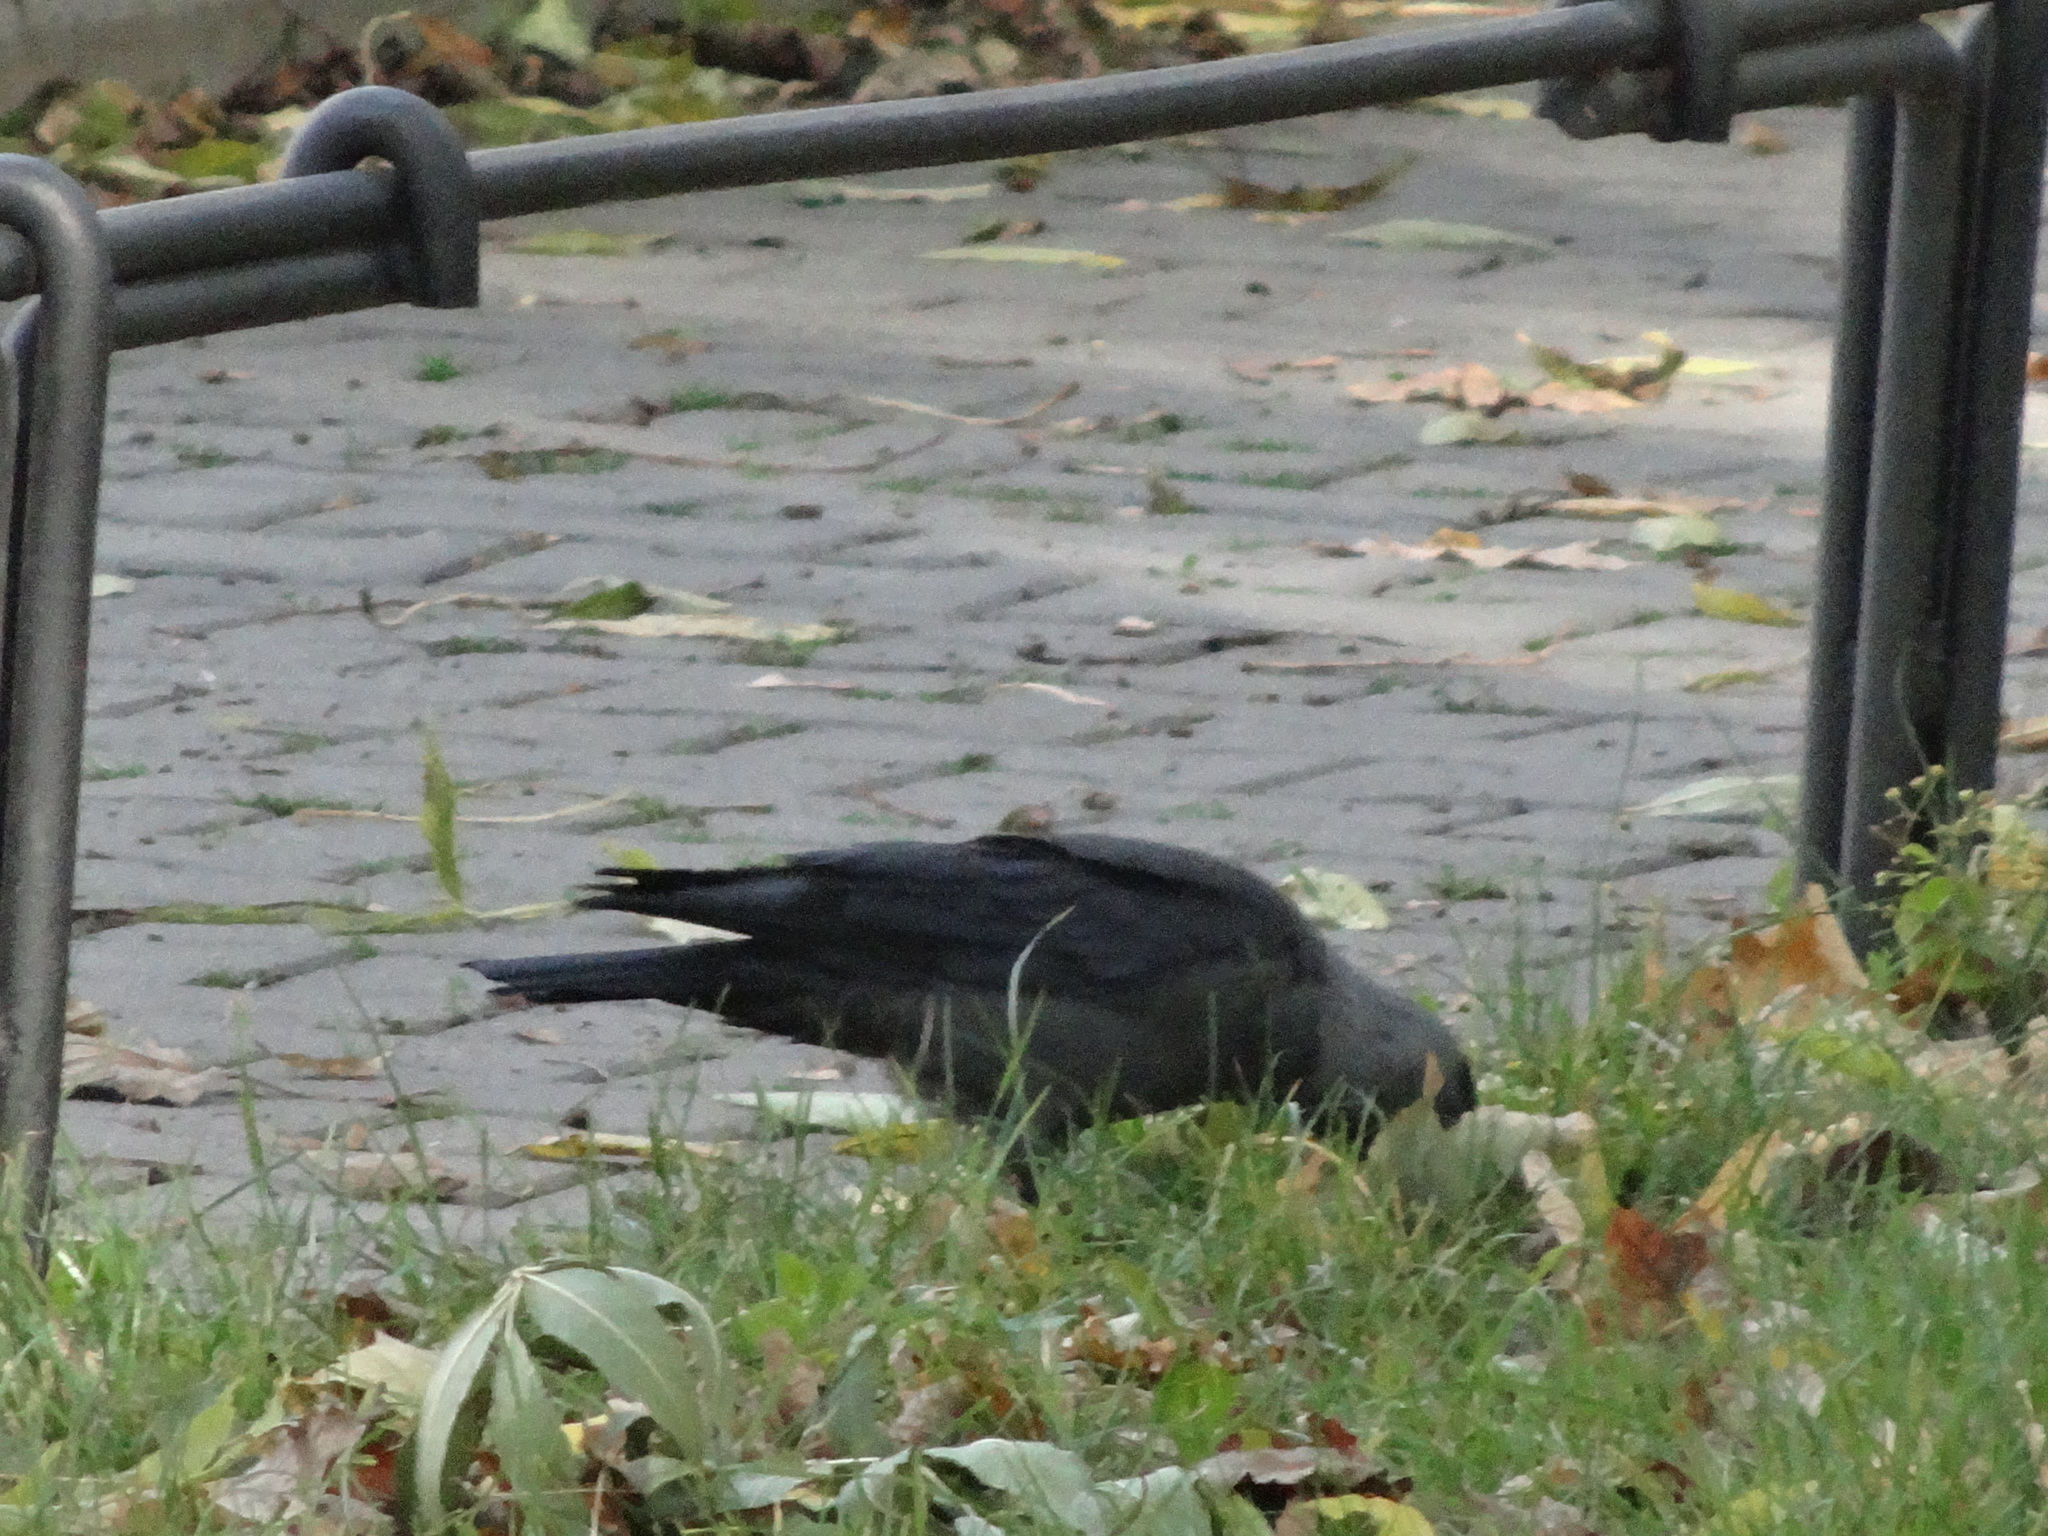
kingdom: Animalia
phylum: Chordata
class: Aves
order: Passeriformes
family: Corvidae
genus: Coloeus
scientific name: Coloeus monedula
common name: Western jackdaw
